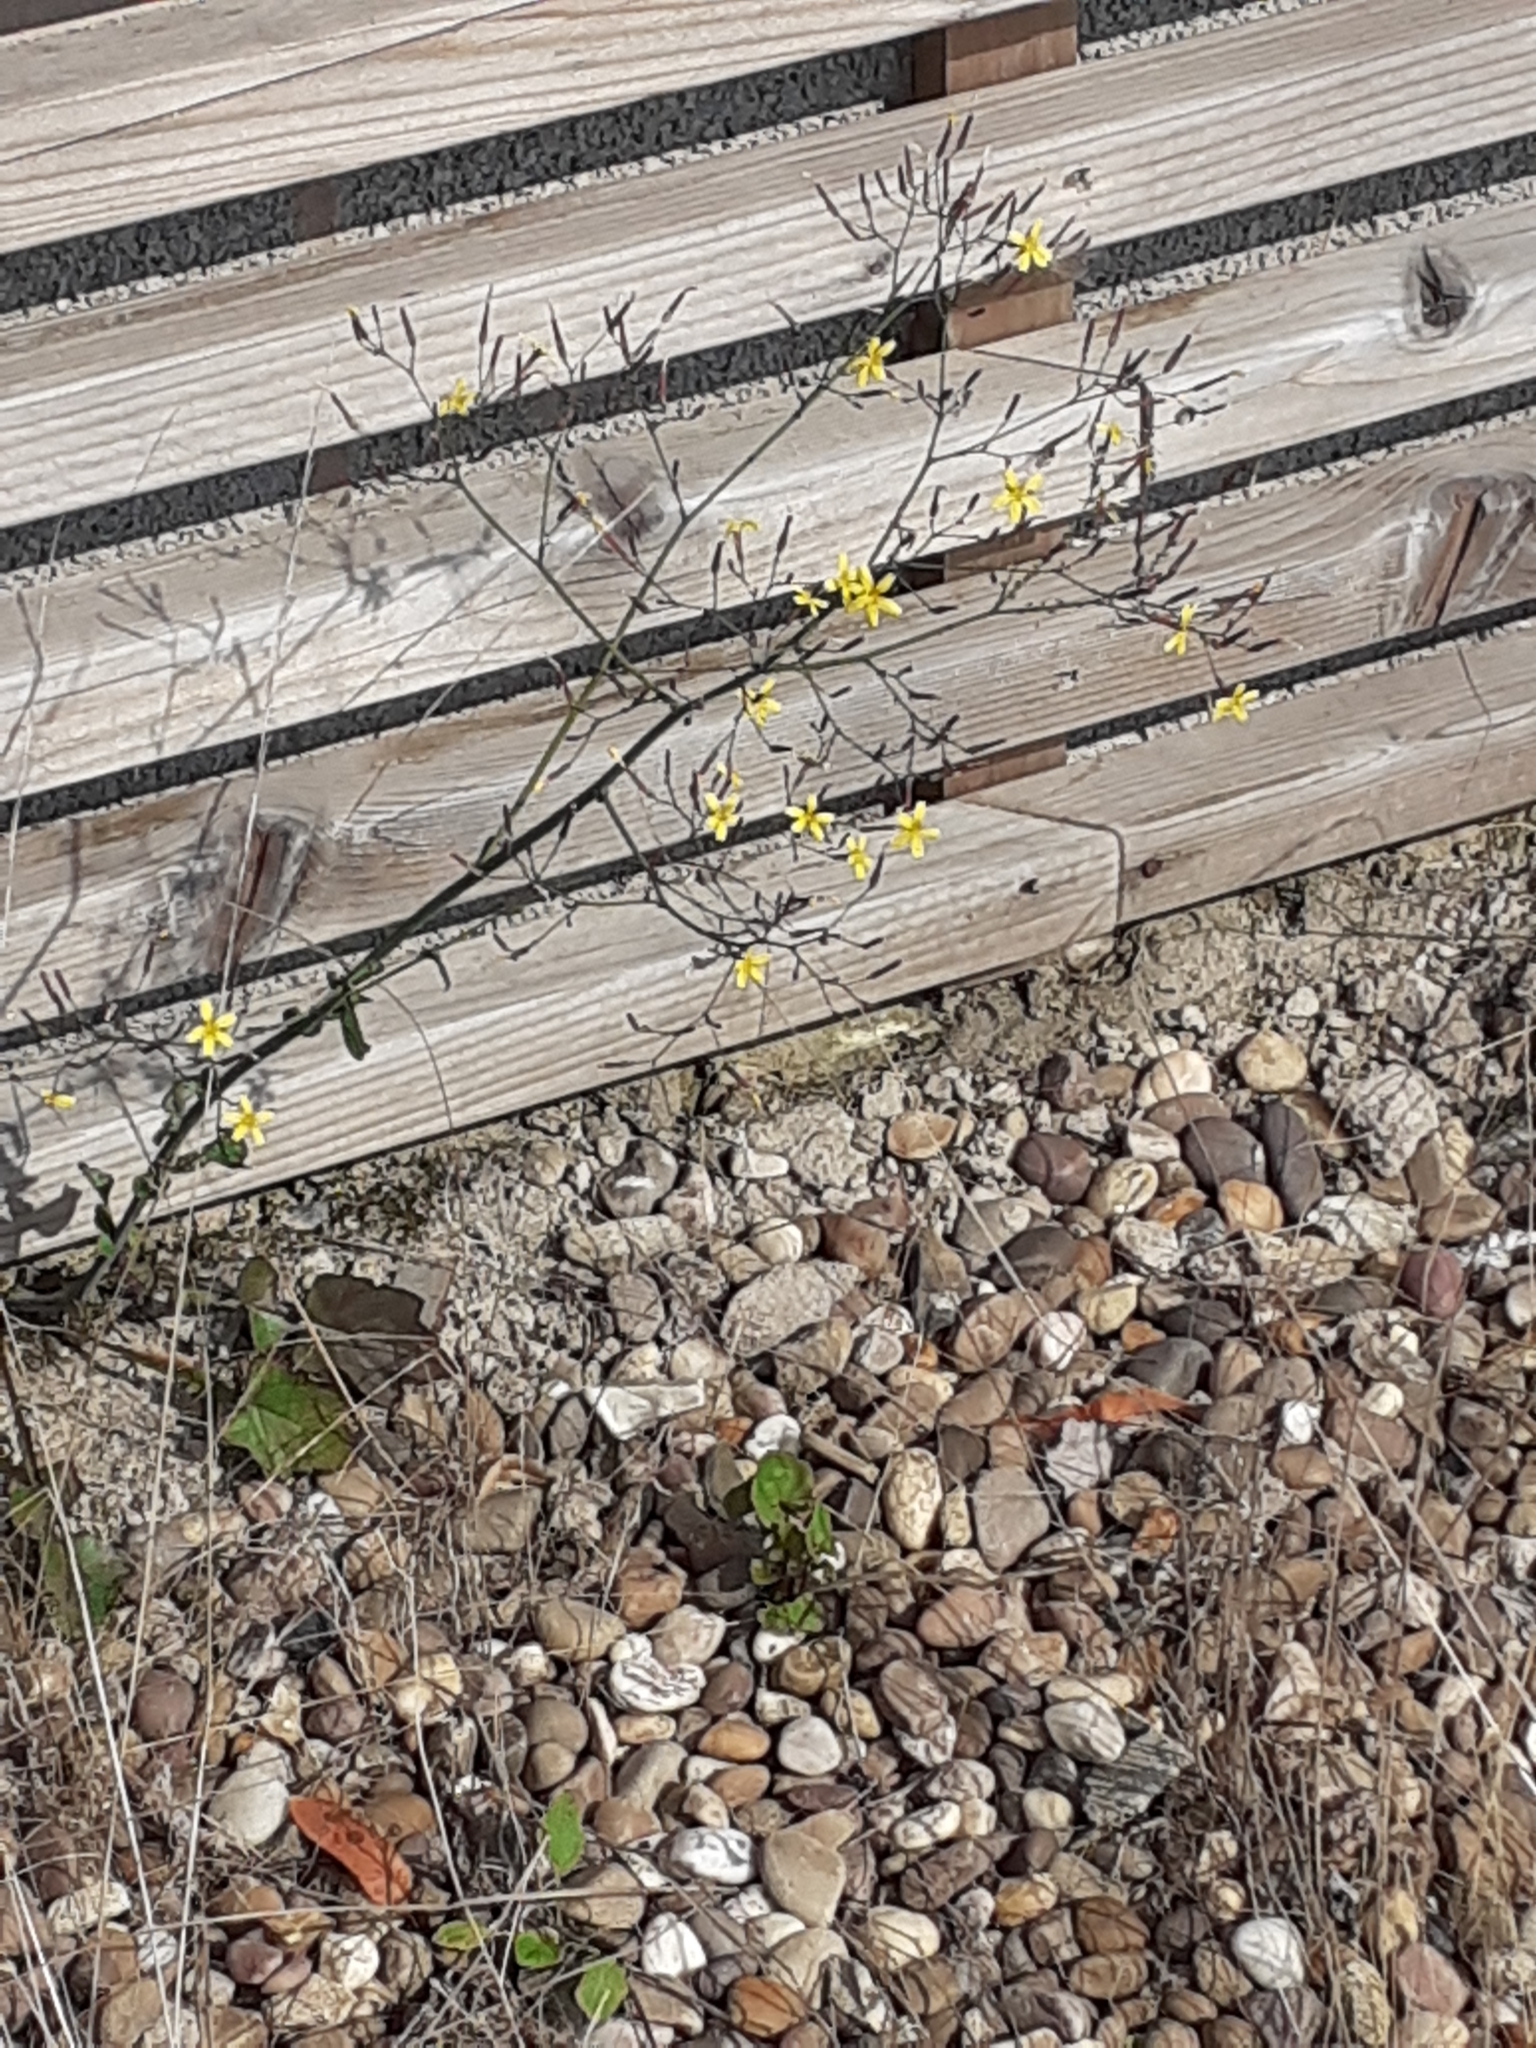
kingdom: Plantae
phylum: Tracheophyta
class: Magnoliopsida
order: Asterales
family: Asteraceae
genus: Mycelis
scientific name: Mycelis muralis
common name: Wall lettuce
